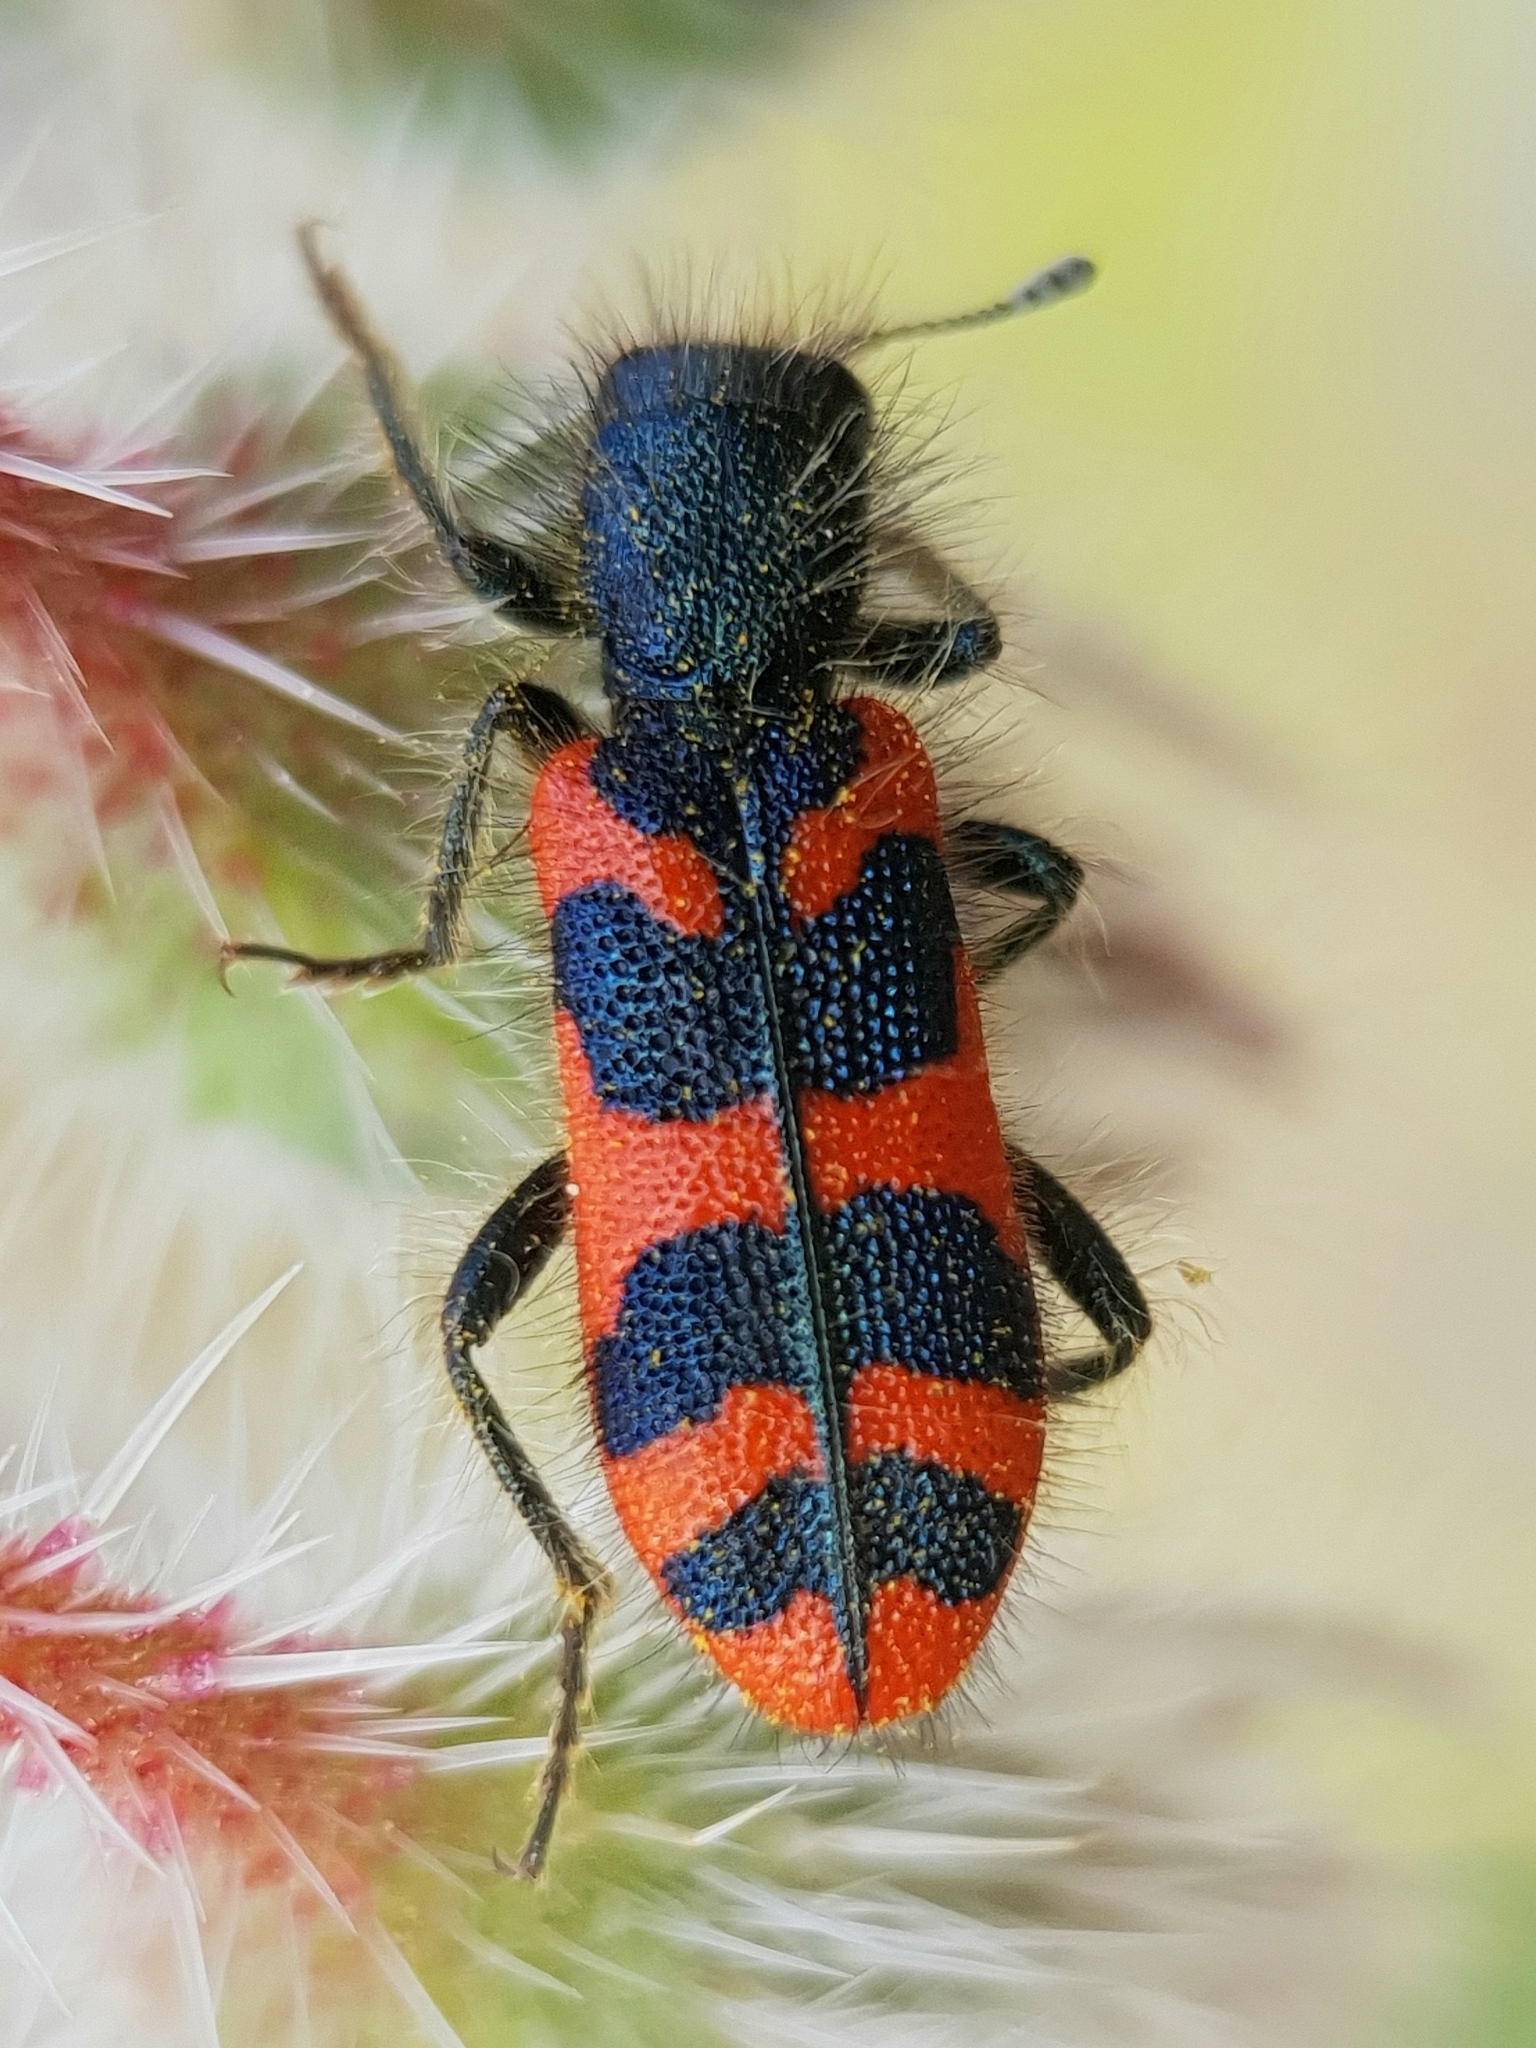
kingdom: Animalia
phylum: Arthropoda
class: Insecta
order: Coleoptera
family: Cleridae
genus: Trichodes
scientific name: Trichodes umbellatarum
